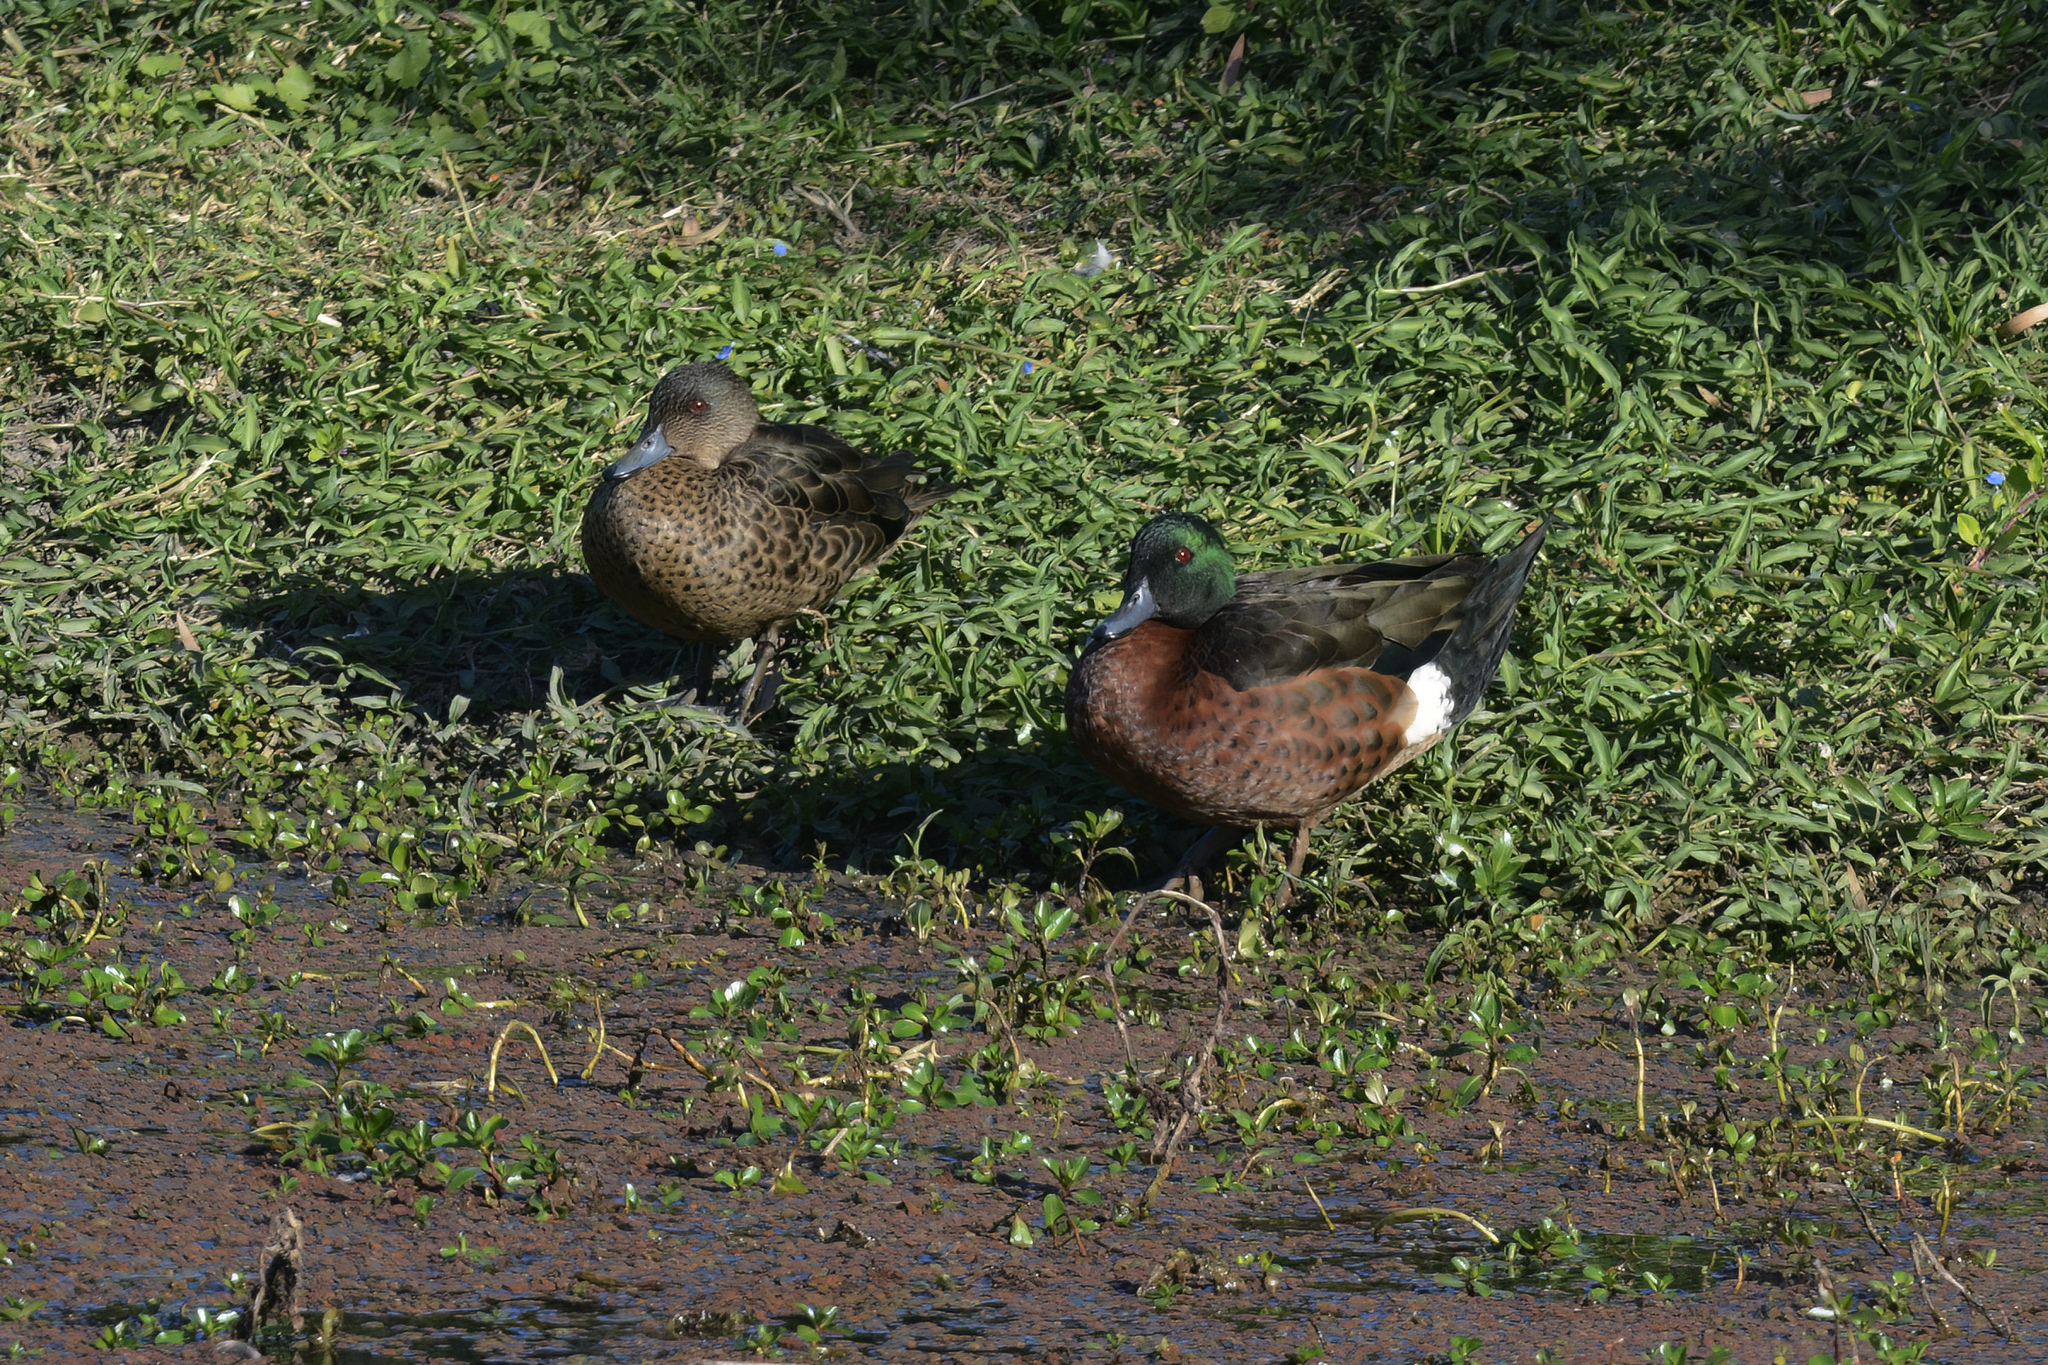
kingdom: Animalia
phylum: Chordata
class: Aves
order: Anseriformes
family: Anatidae
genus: Anas
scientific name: Anas castanea
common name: Chestnut teal
